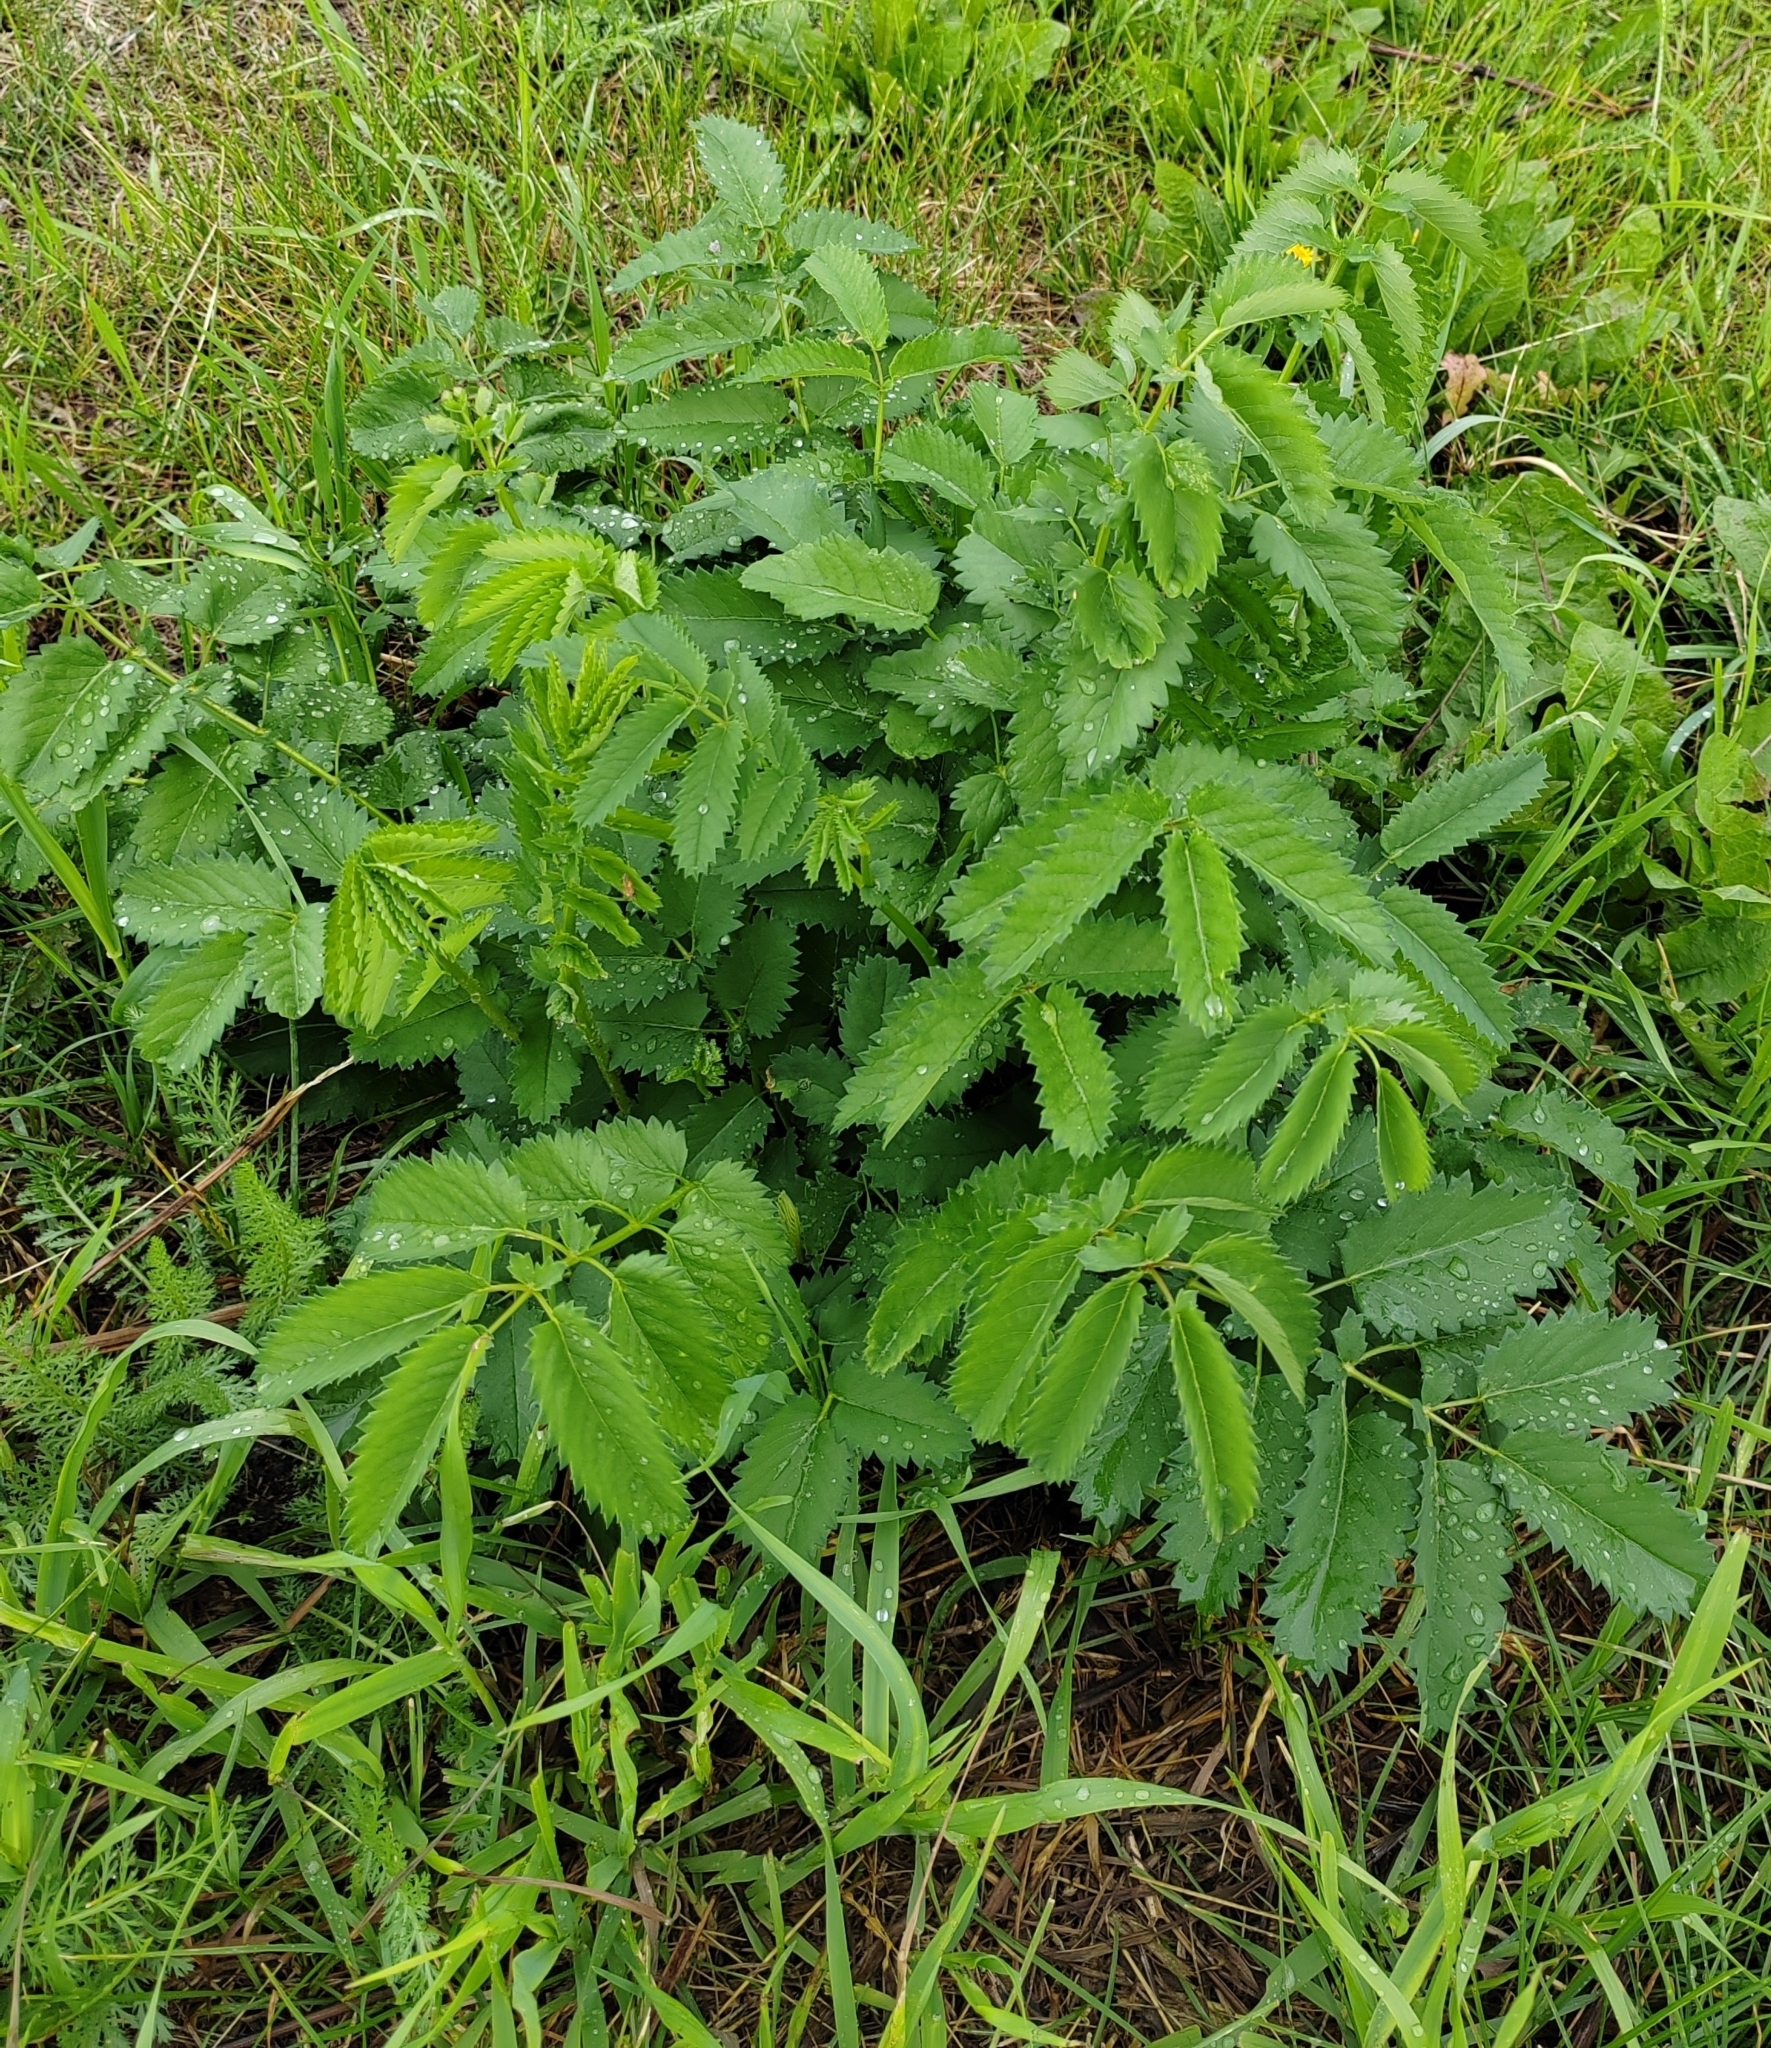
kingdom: Plantae
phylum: Tracheophyta
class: Magnoliopsida
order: Rosales
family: Rosaceae
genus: Sanguisorba
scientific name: Sanguisorba officinalis
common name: Great burnet
